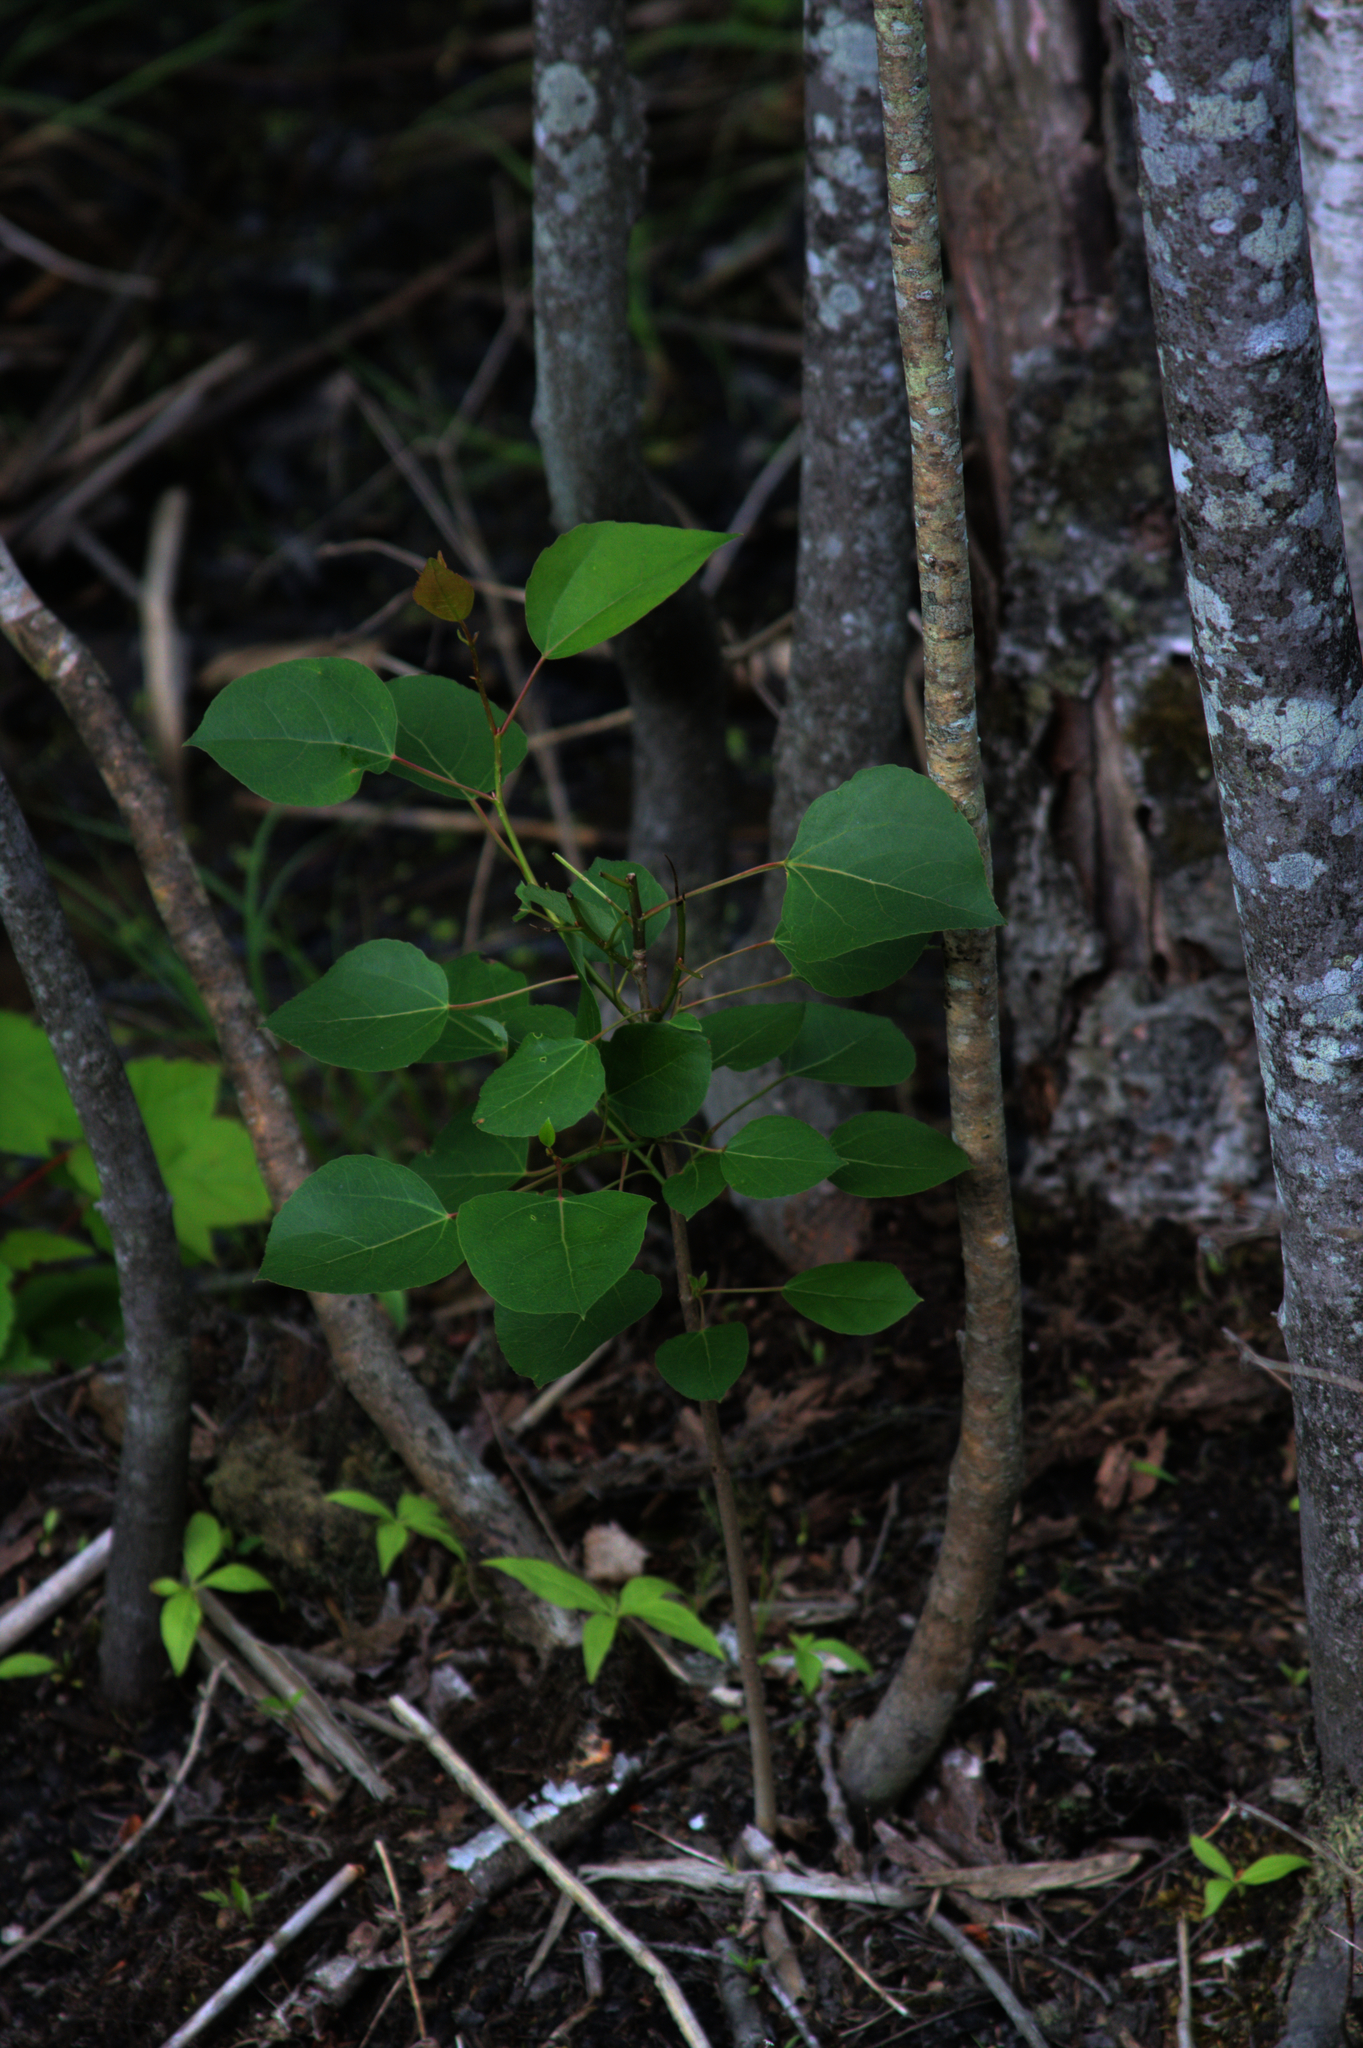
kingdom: Plantae
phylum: Tracheophyta
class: Magnoliopsida
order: Malpighiales
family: Salicaceae
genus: Populus
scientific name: Populus tremuloides
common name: Quaking aspen
